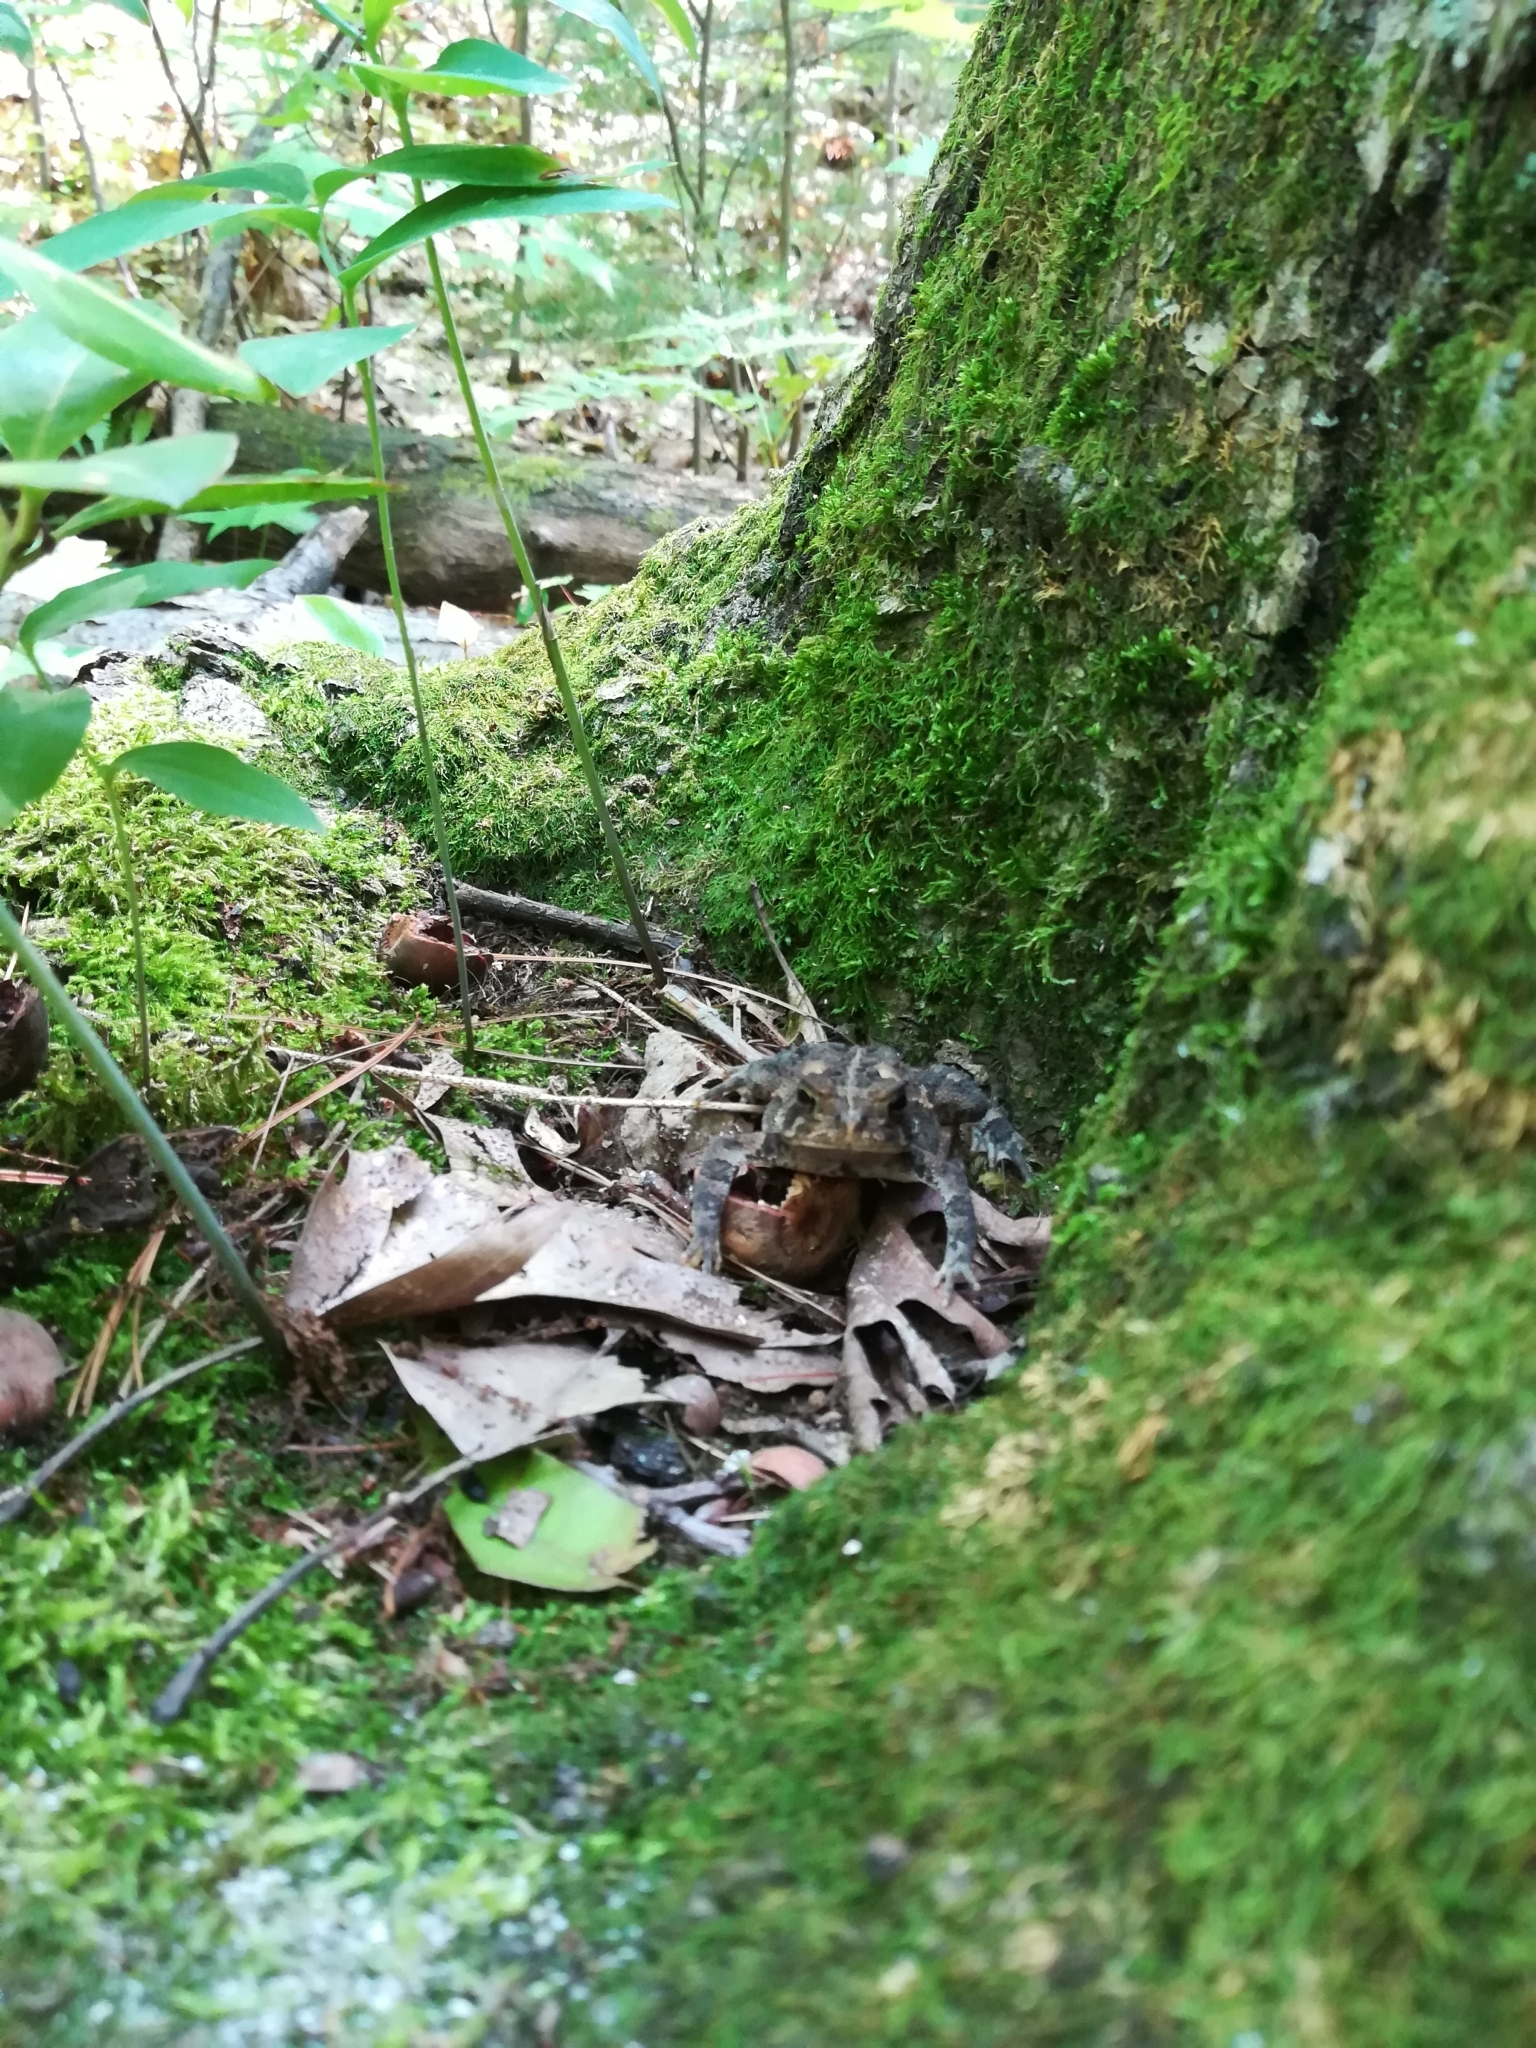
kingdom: Animalia
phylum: Chordata
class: Amphibia
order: Anura
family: Bufonidae
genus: Anaxyrus
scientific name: Anaxyrus americanus
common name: American toad
